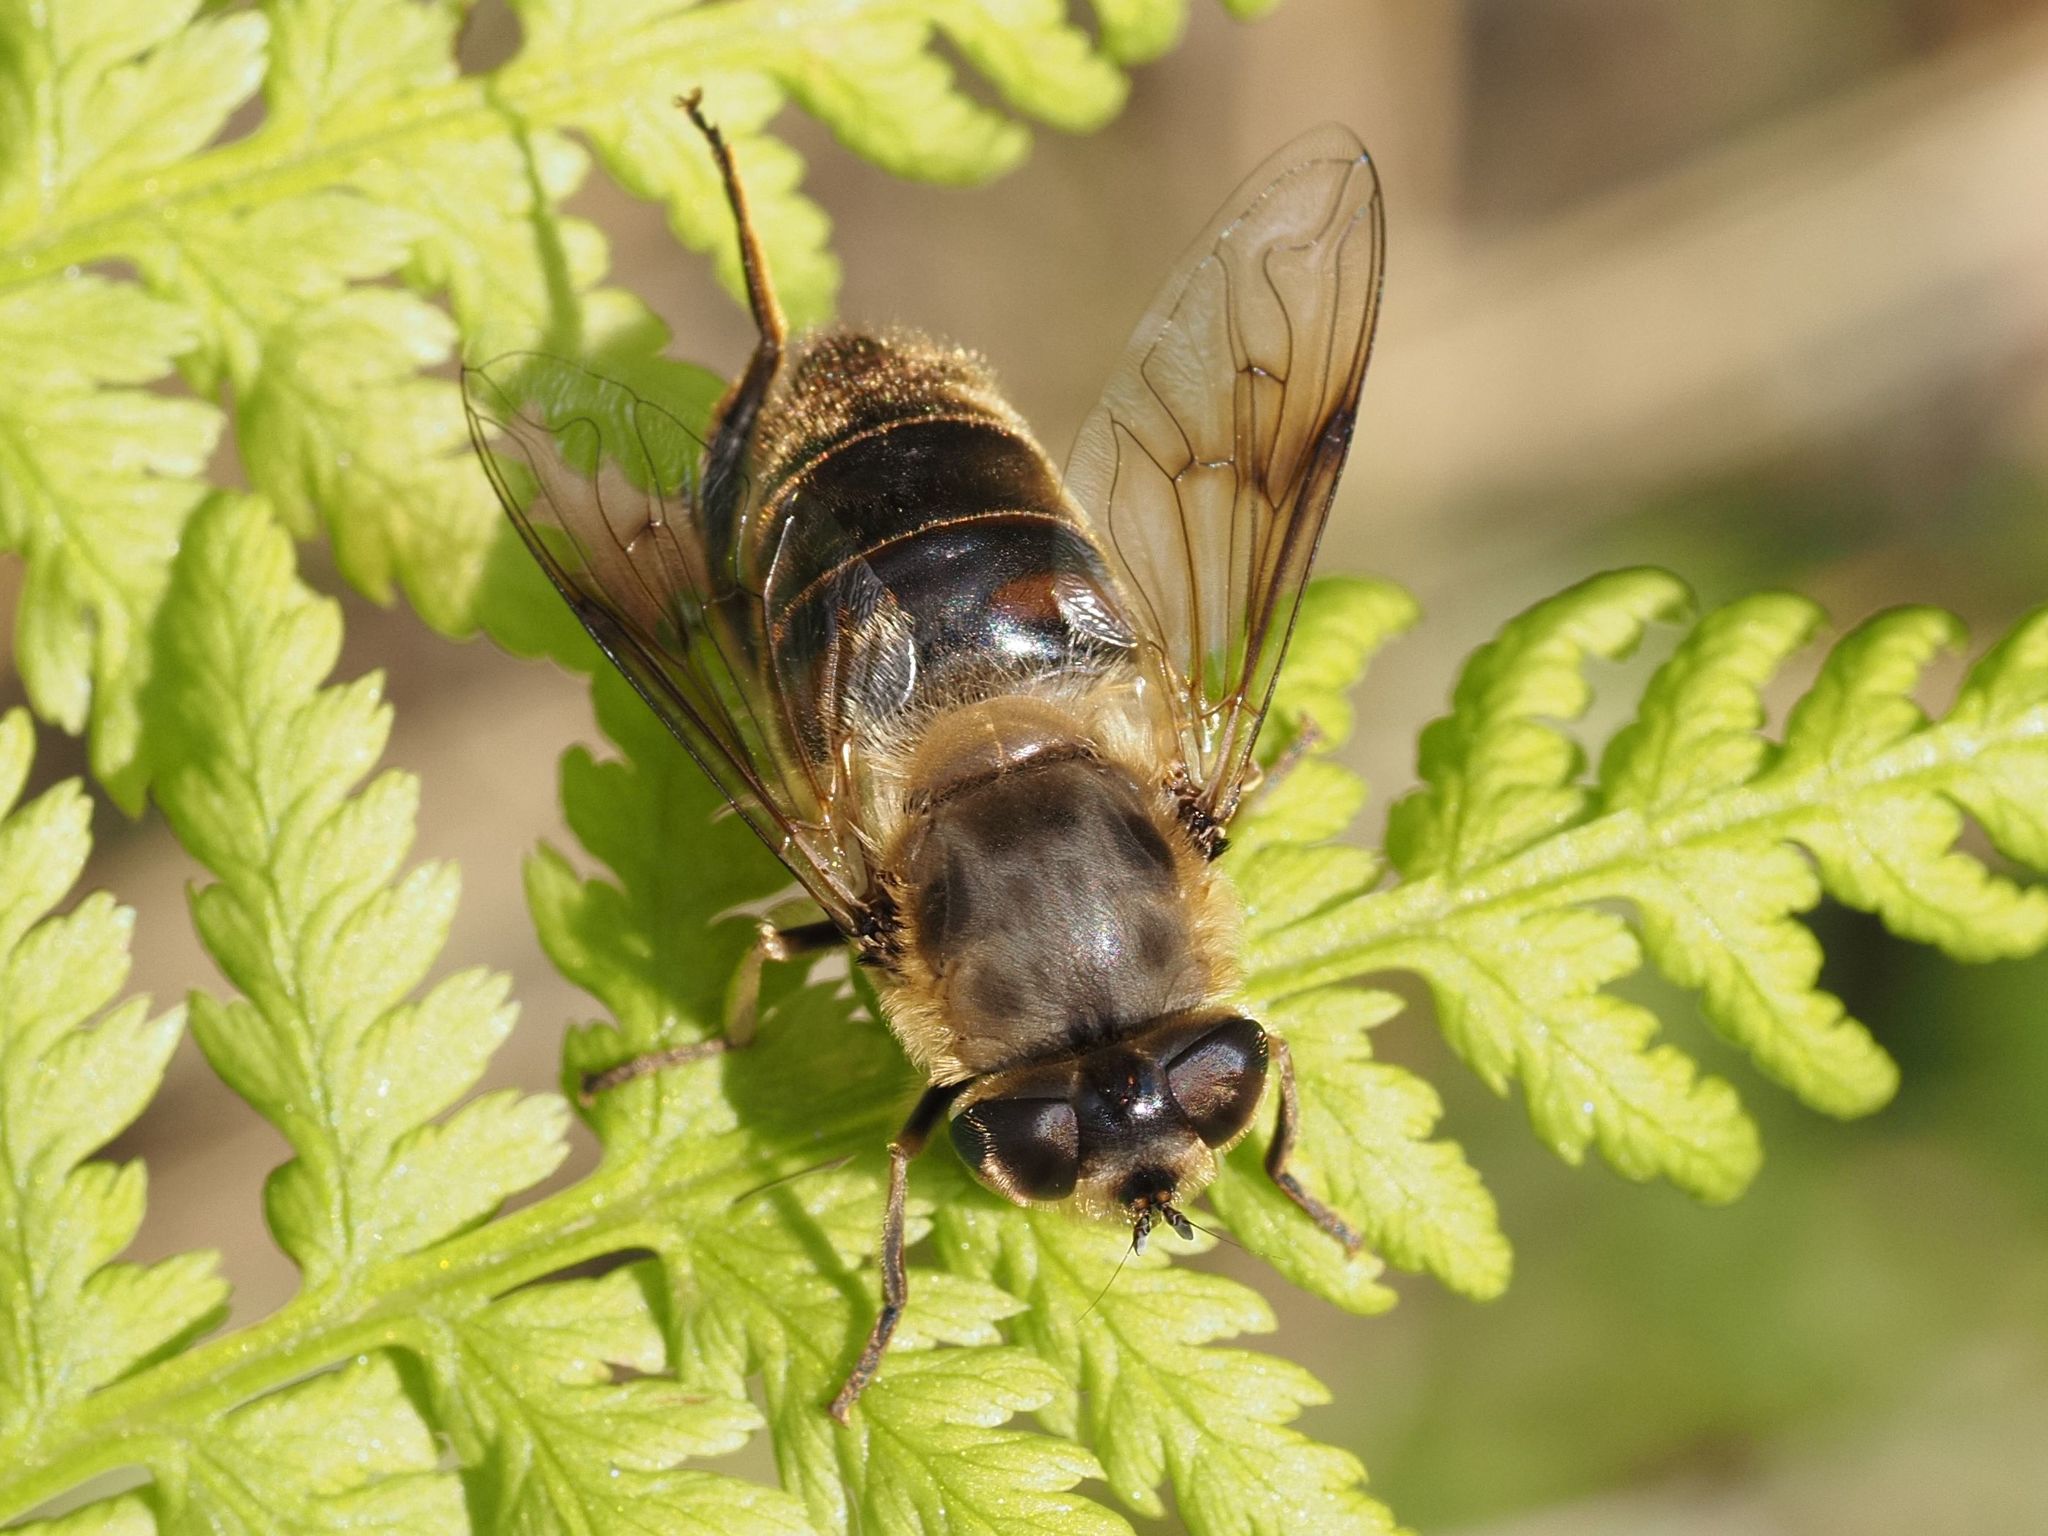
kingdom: Animalia
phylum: Arthropoda
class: Insecta
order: Diptera
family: Syrphidae
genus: Eristalis
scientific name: Eristalis tenax
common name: Drone fly
